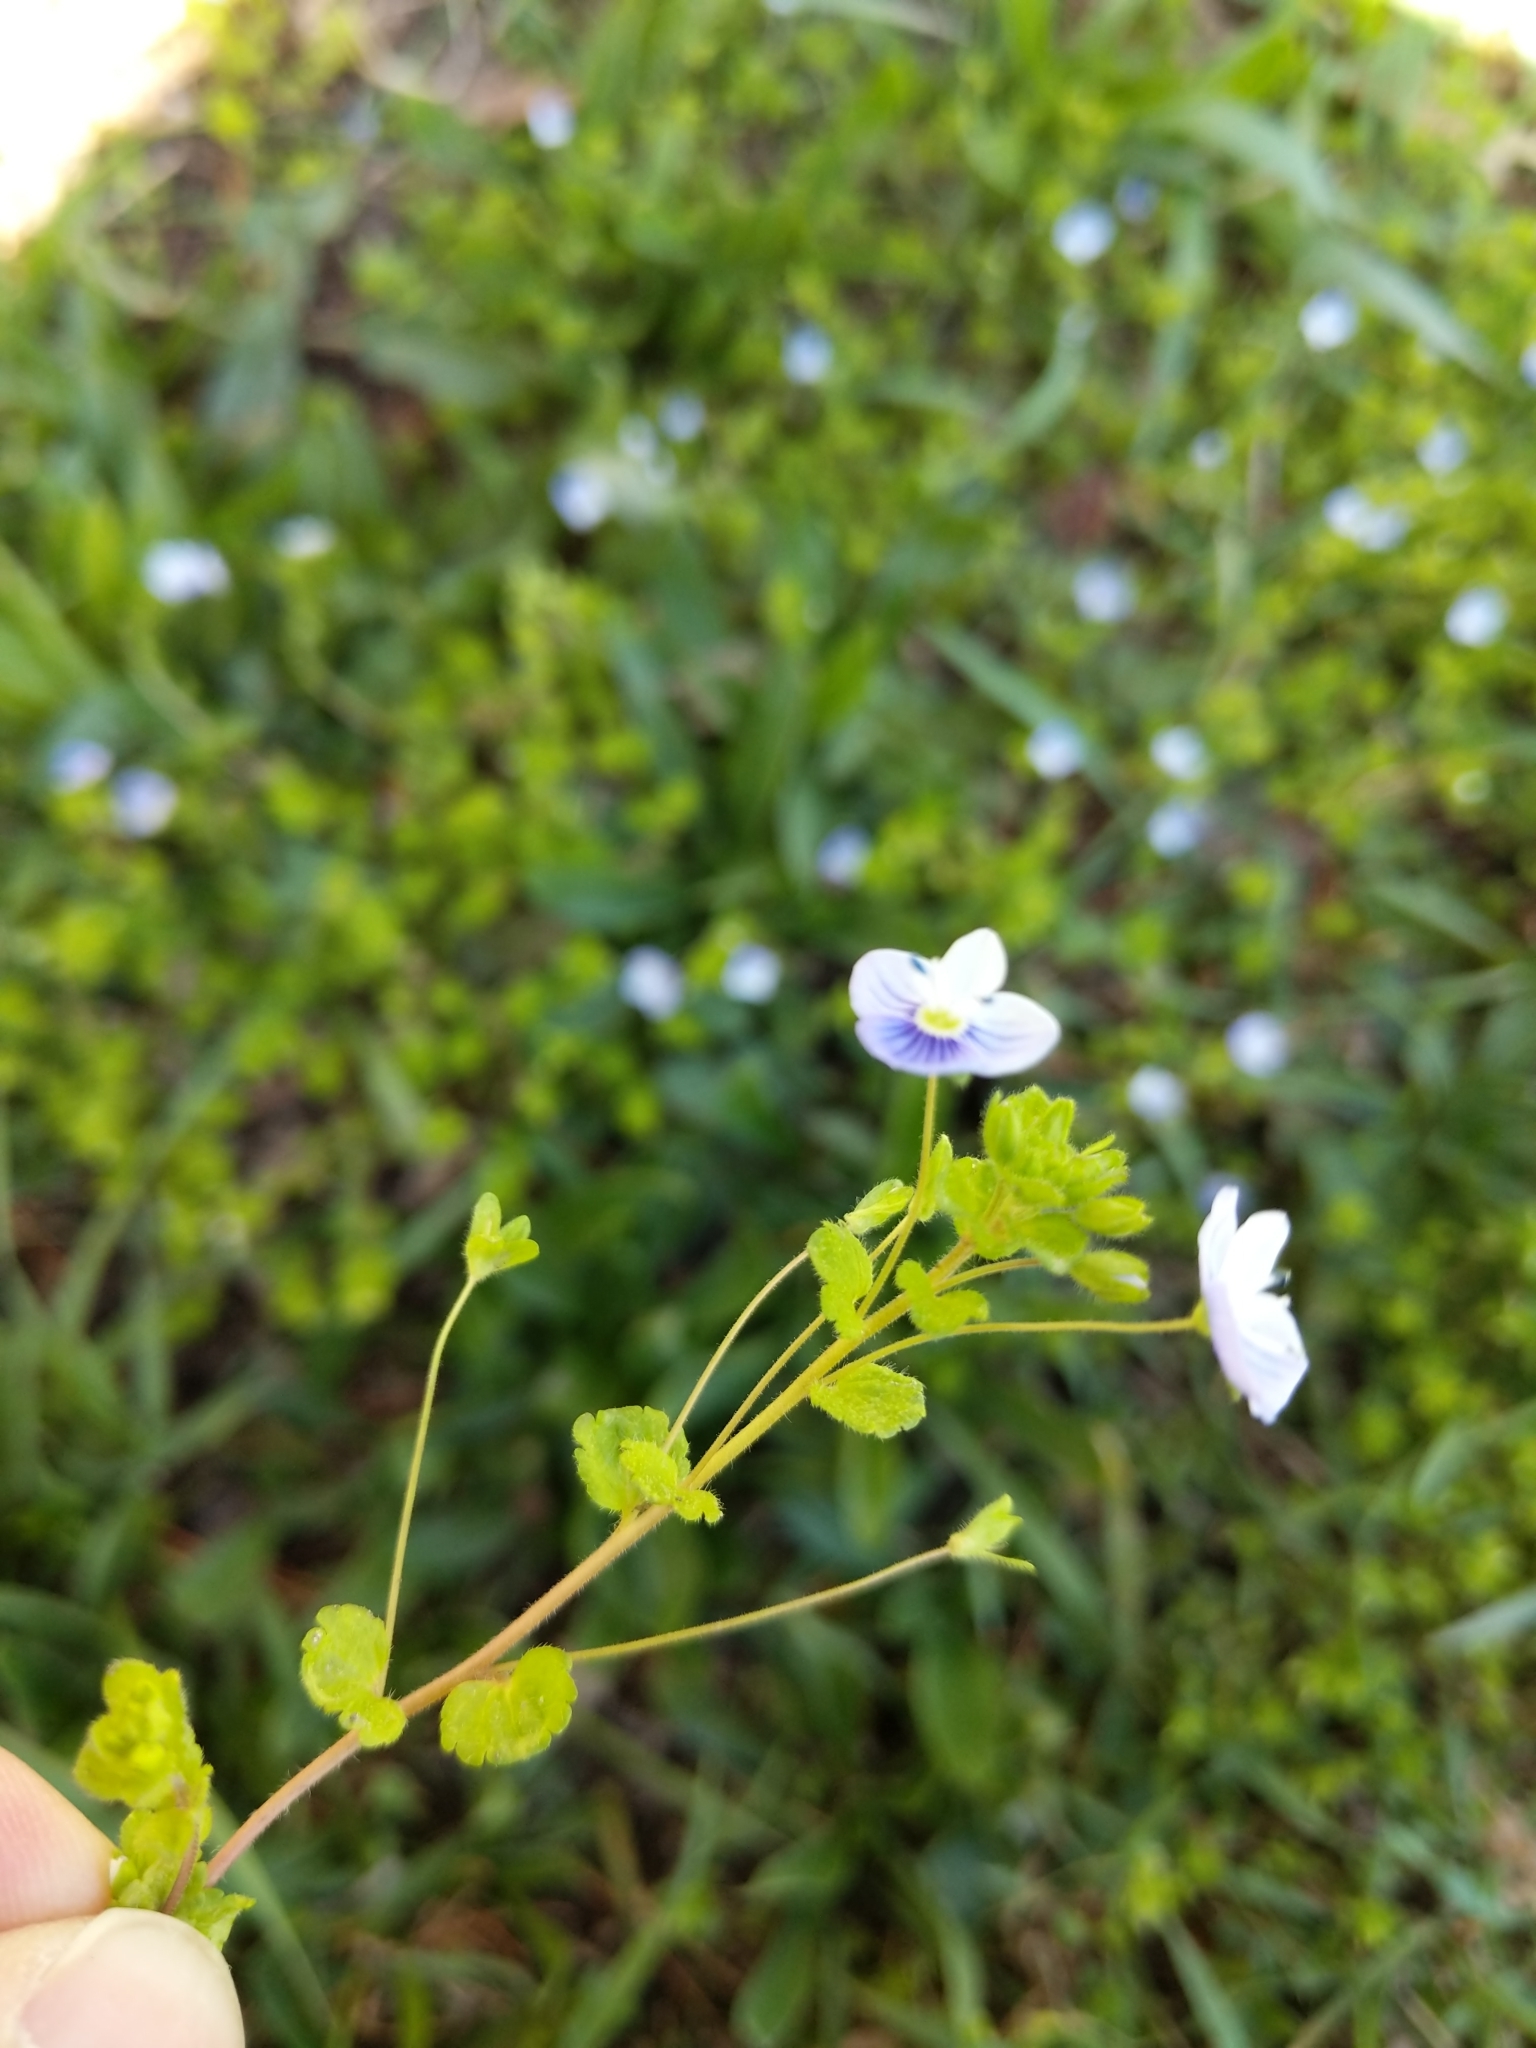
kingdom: Plantae
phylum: Tracheophyta
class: Magnoliopsida
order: Lamiales
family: Plantaginaceae
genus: Veronica
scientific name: Veronica filiformis
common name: Slender speedwell
